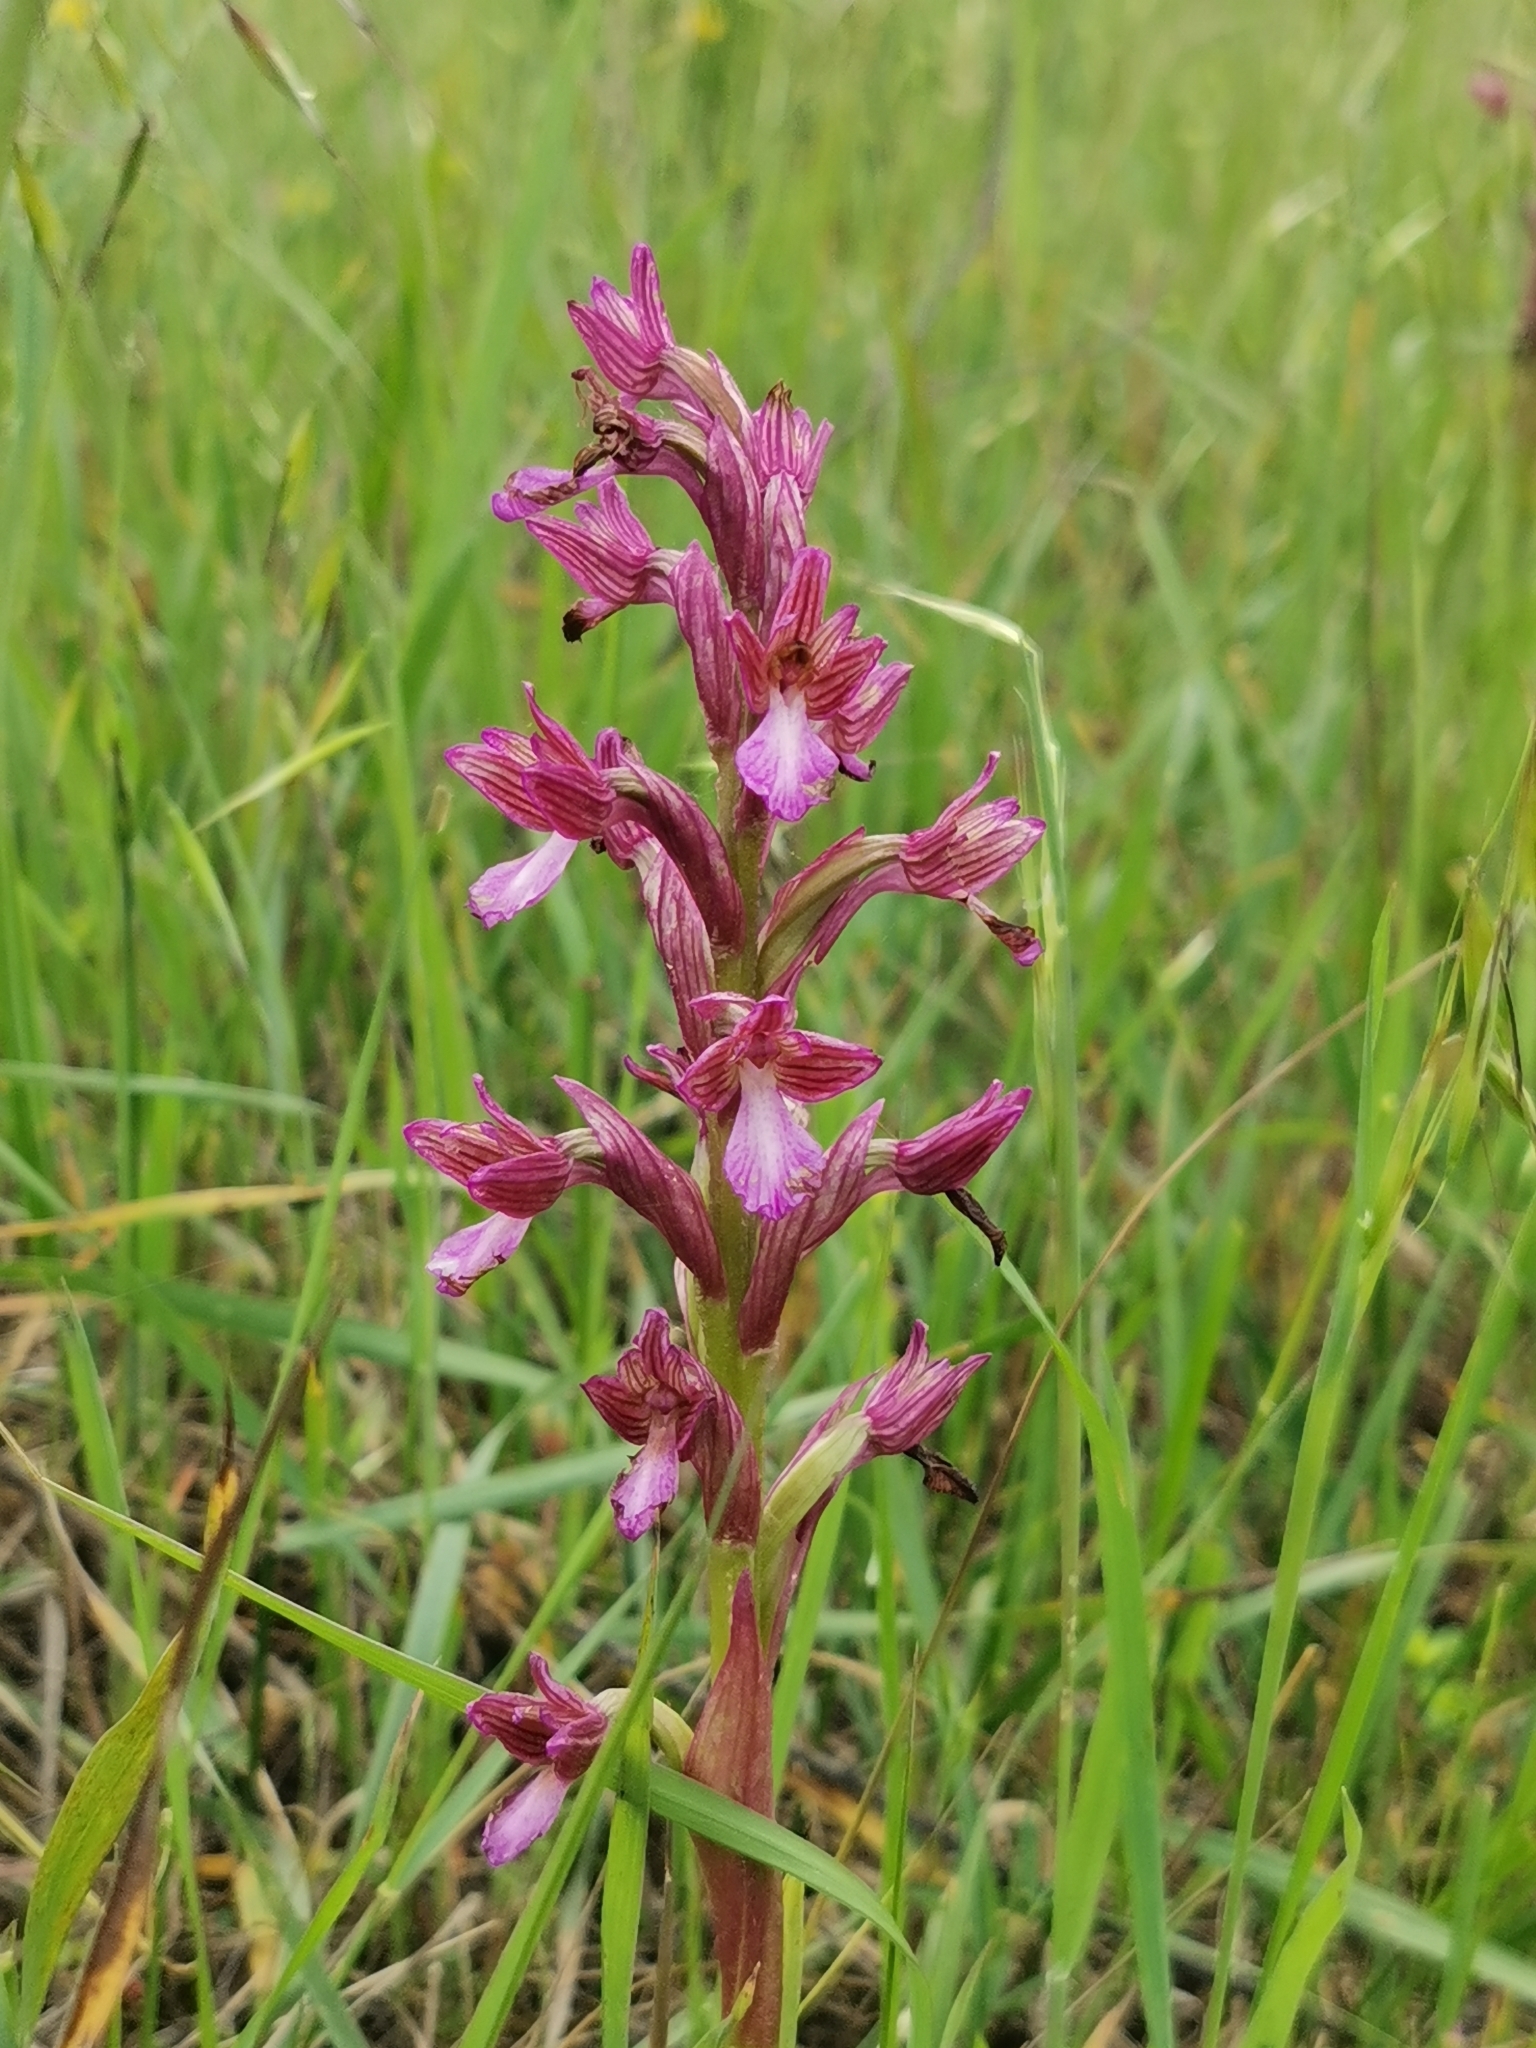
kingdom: Plantae
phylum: Tracheophyta
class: Liliopsida
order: Asparagales
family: Orchidaceae
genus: Anacamptis
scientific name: Anacamptis papilionacea
